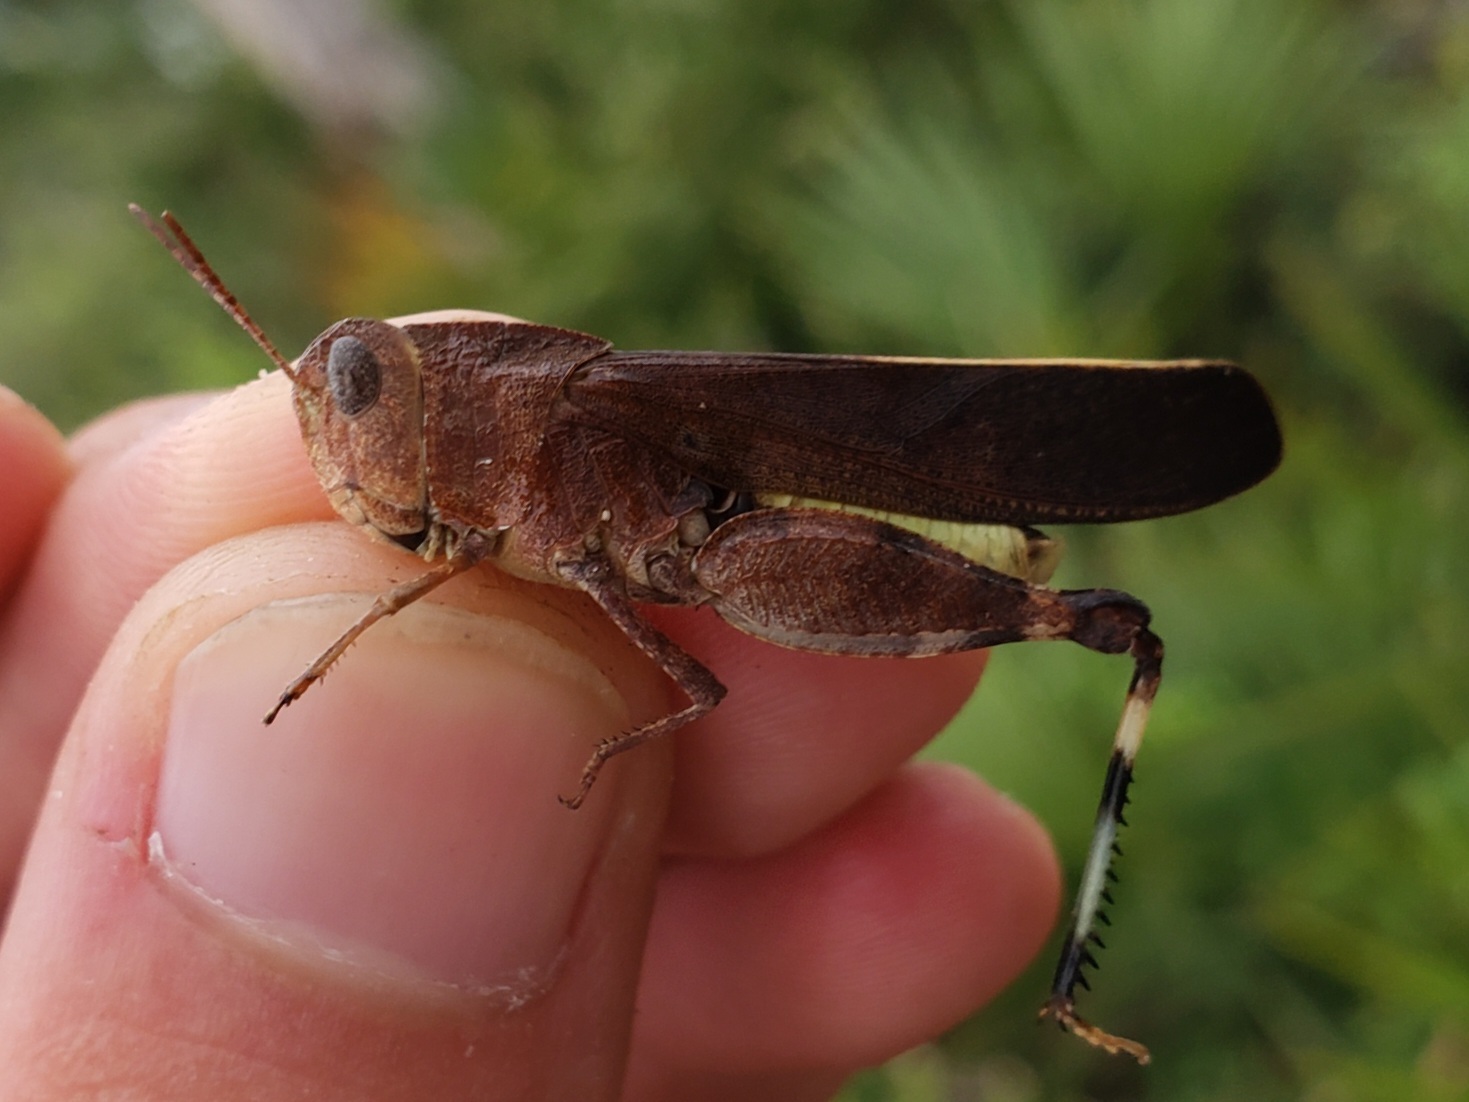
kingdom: Animalia
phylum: Arthropoda
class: Insecta
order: Orthoptera
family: Acrididae
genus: Arphia
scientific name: Arphia granulata
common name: Southern yellow-winged grasshopper
